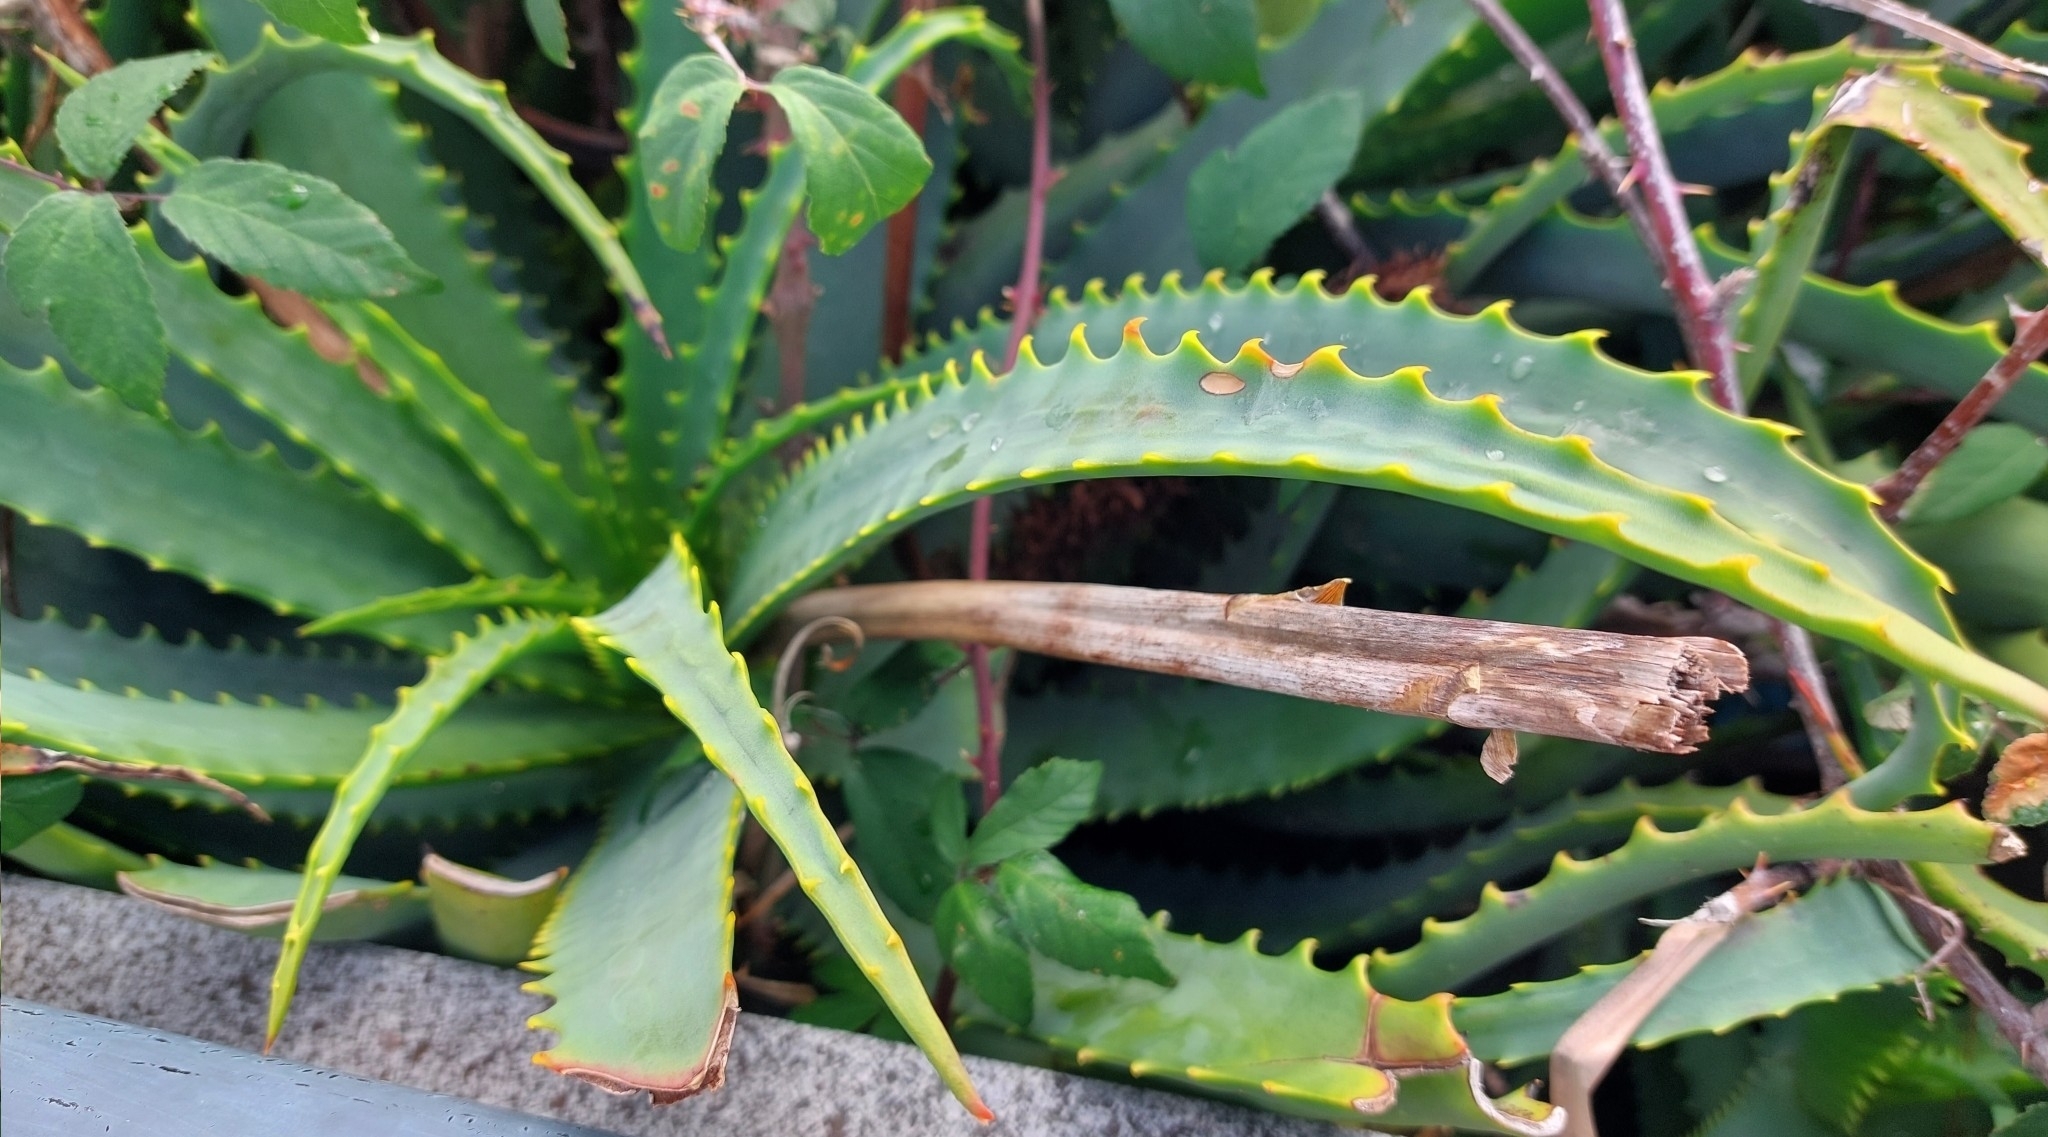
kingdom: Plantae
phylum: Tracheophyta
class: Liliopsida
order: Asparagales
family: Asphodelaceae
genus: Aloe
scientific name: Aloe arborescens
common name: Candelabra aloe
